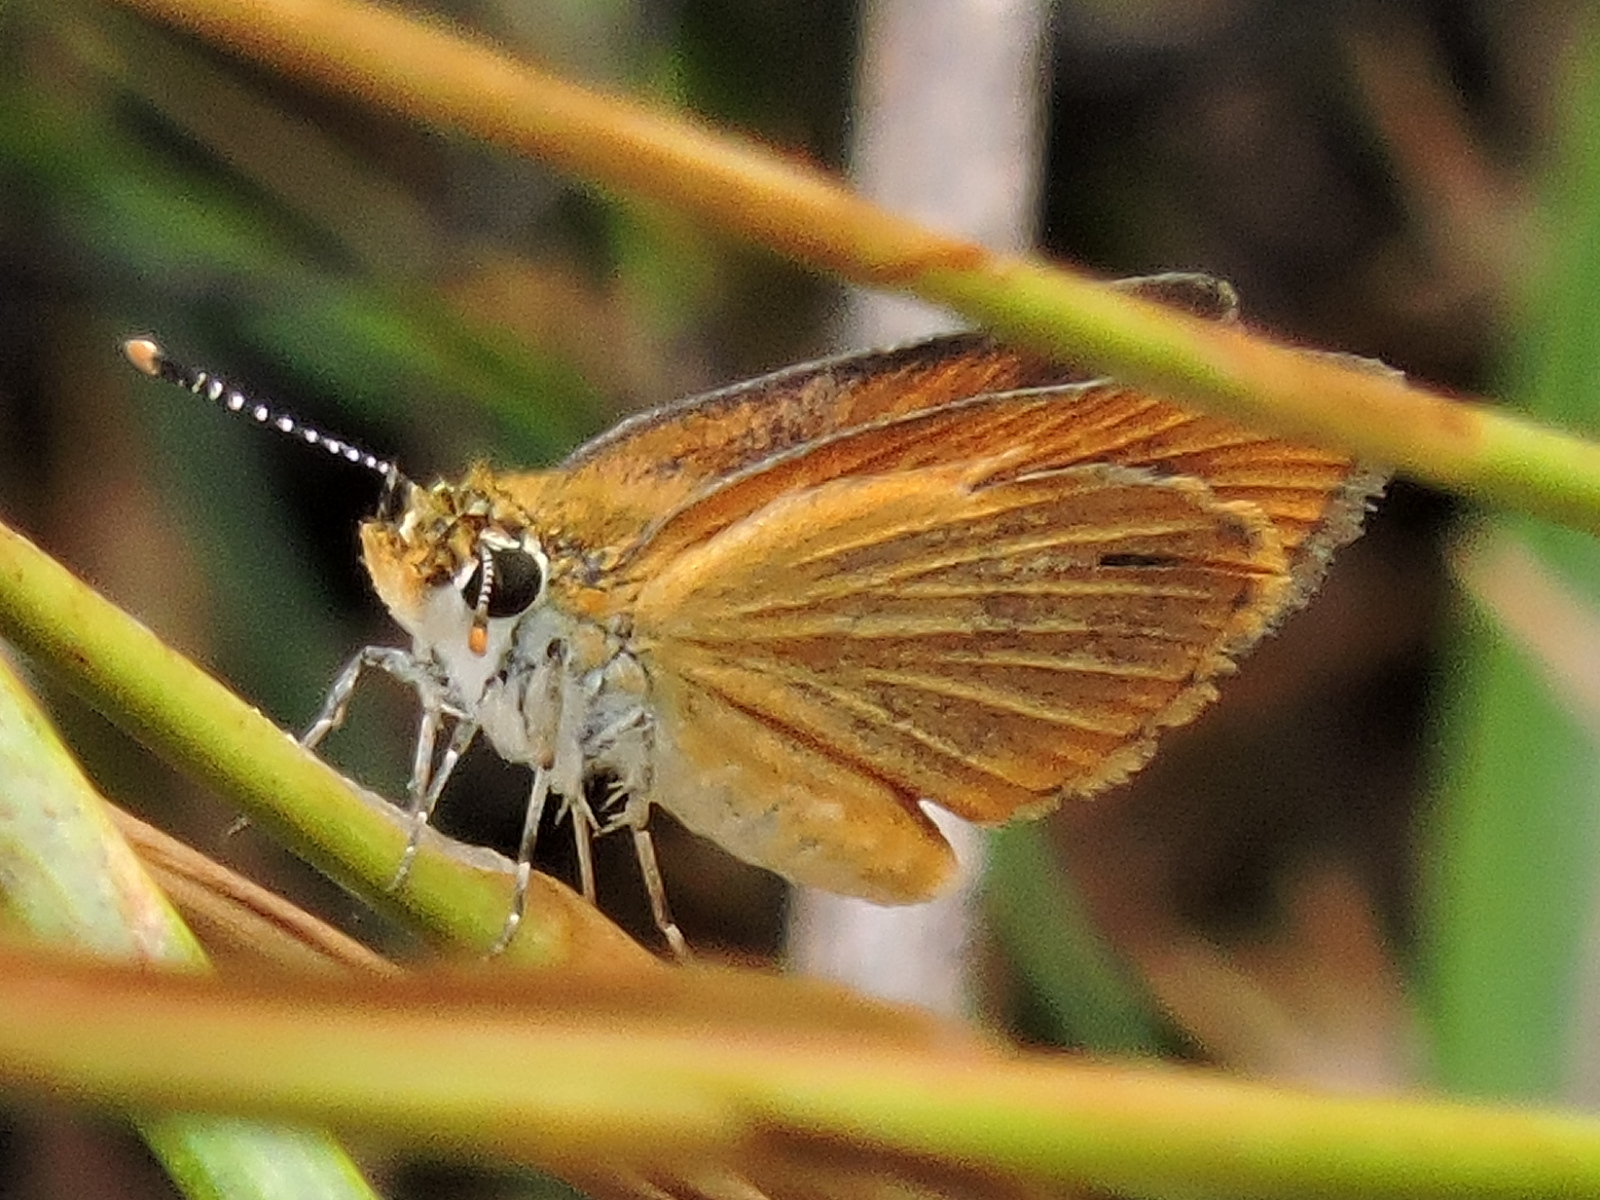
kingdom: Animalia
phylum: Arthropoda
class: Insecta
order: Lepidoptera
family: Hesperiidae
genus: Ancyloxypha
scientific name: Ancyloxypha numitor
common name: Least skipper
